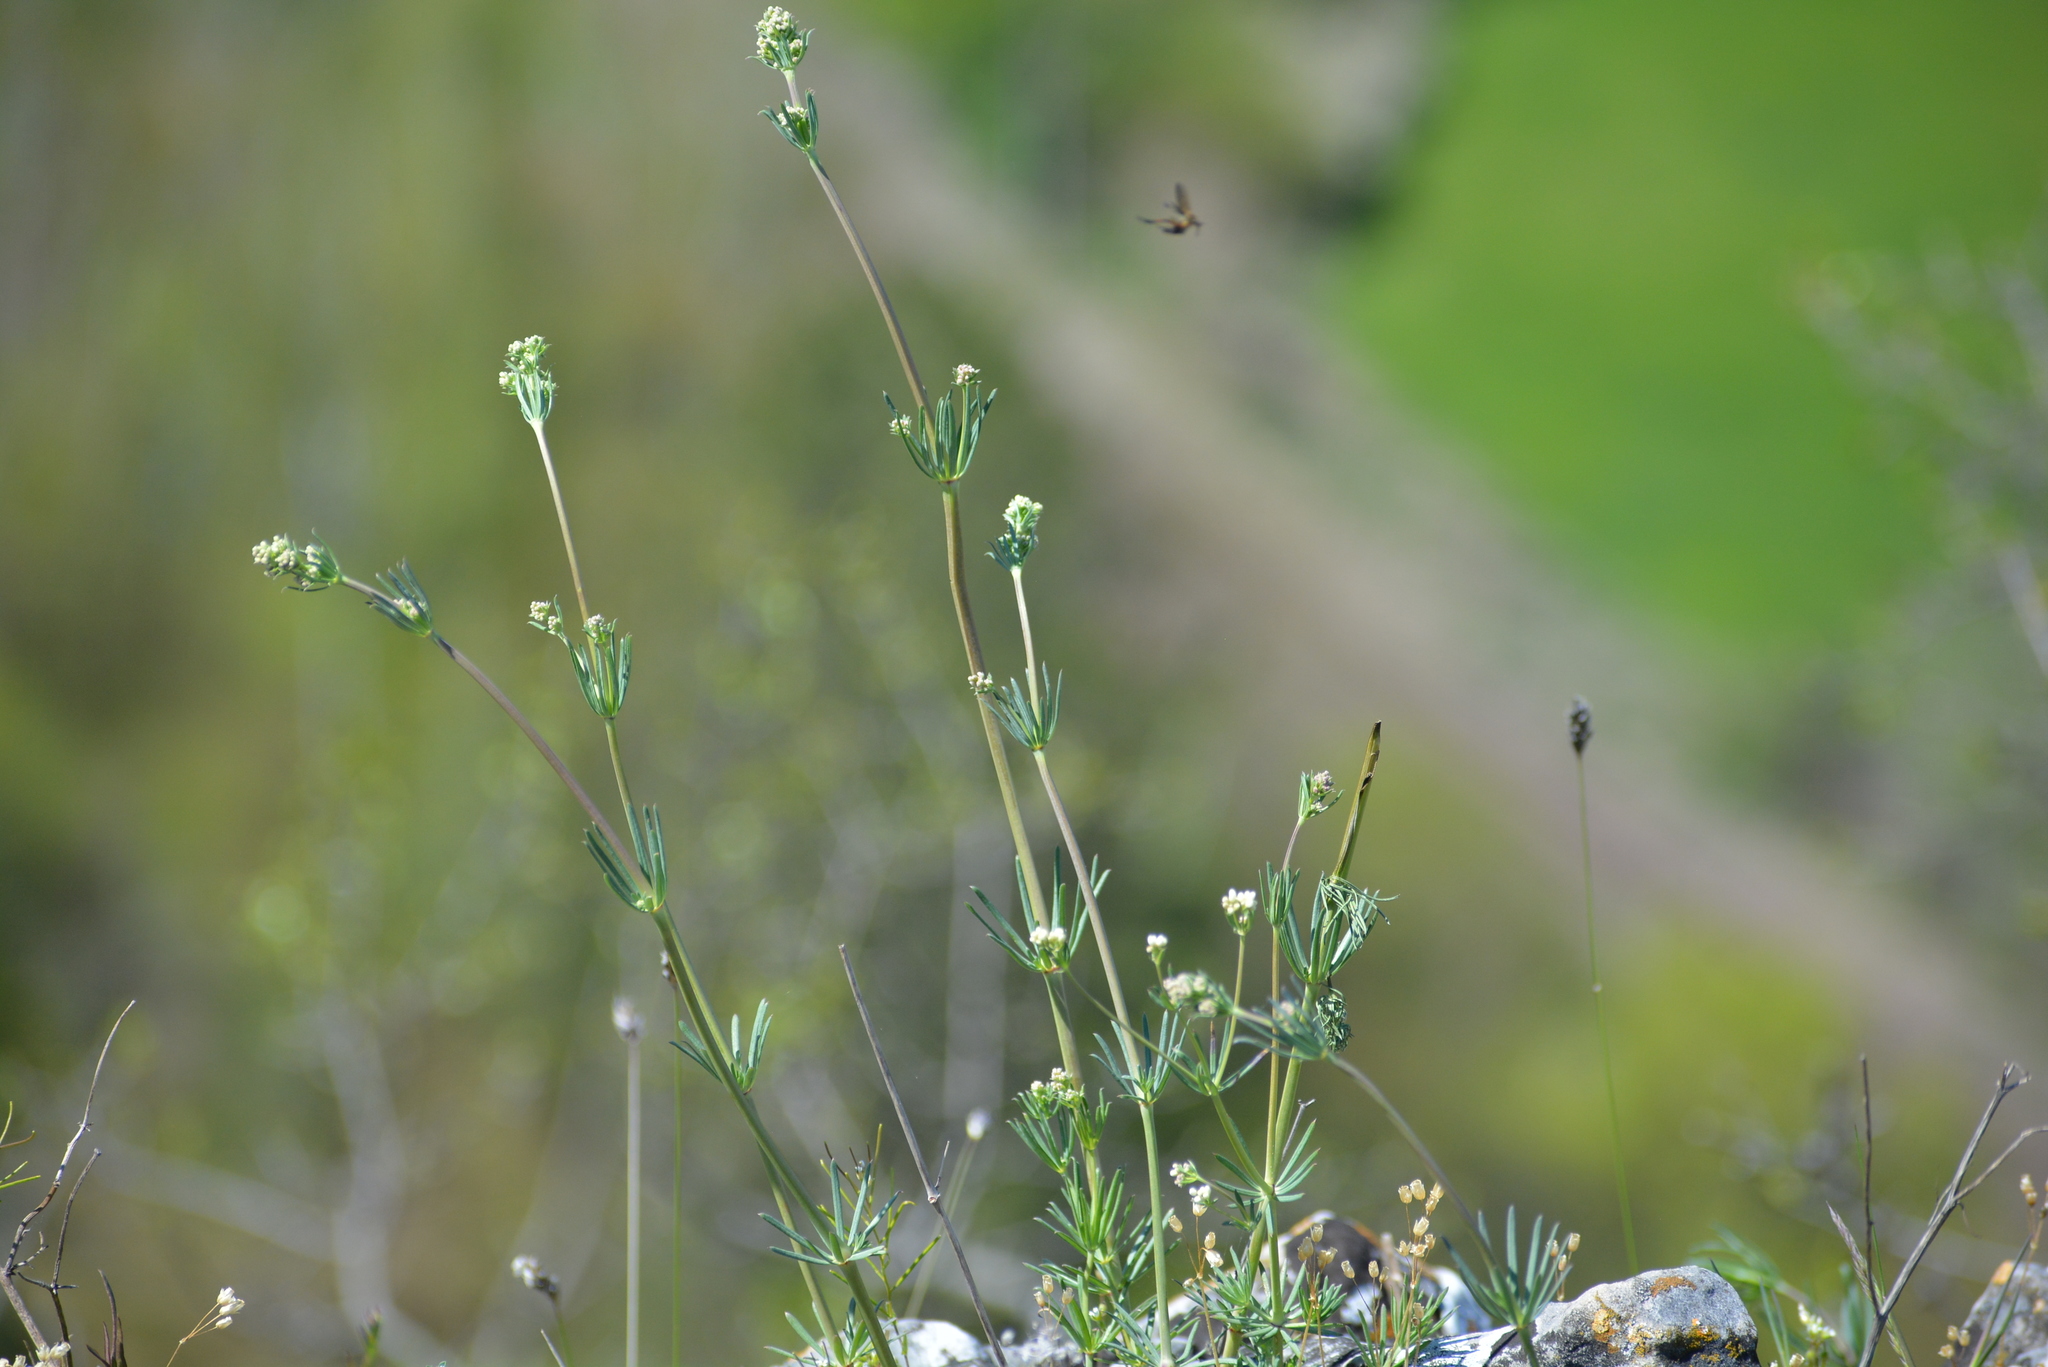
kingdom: Plantae
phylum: Tracheophyta
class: Magnoliopsida
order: Gentianales
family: Rubiaceae
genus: Galium
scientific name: Galium glaucum
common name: Waxy bedstraw
